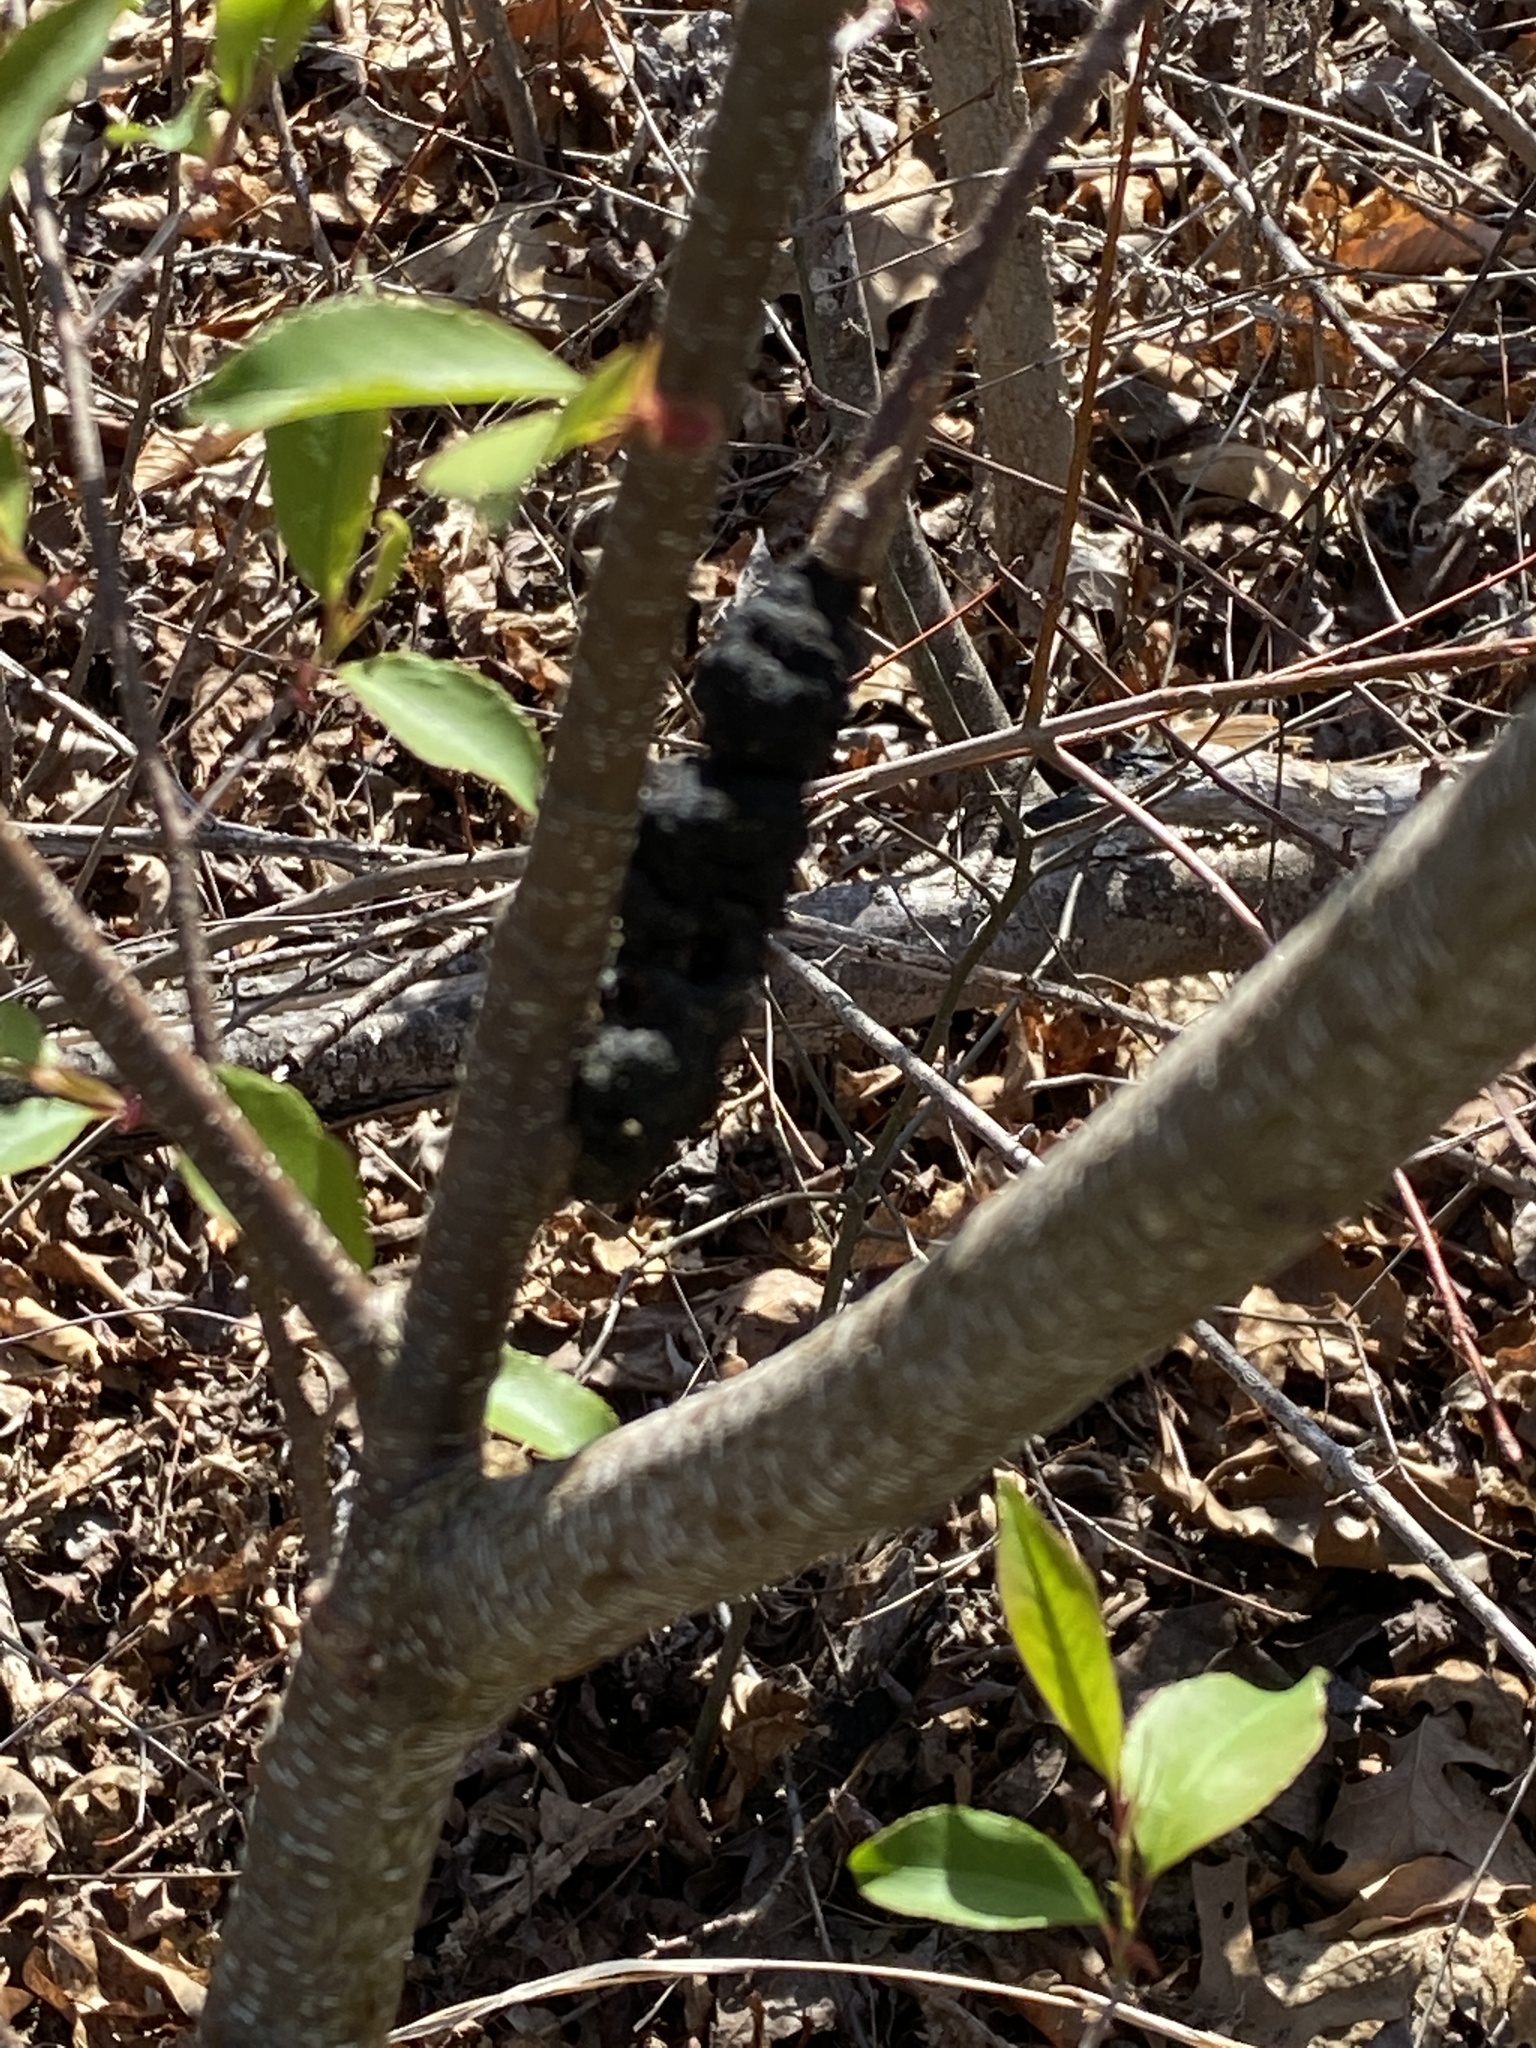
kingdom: Plantae
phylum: Tracheophyta
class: Magnoliopsida
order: Rosales
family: Rosaceae
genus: Prunus
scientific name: Prunus serotina
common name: Black cherry
